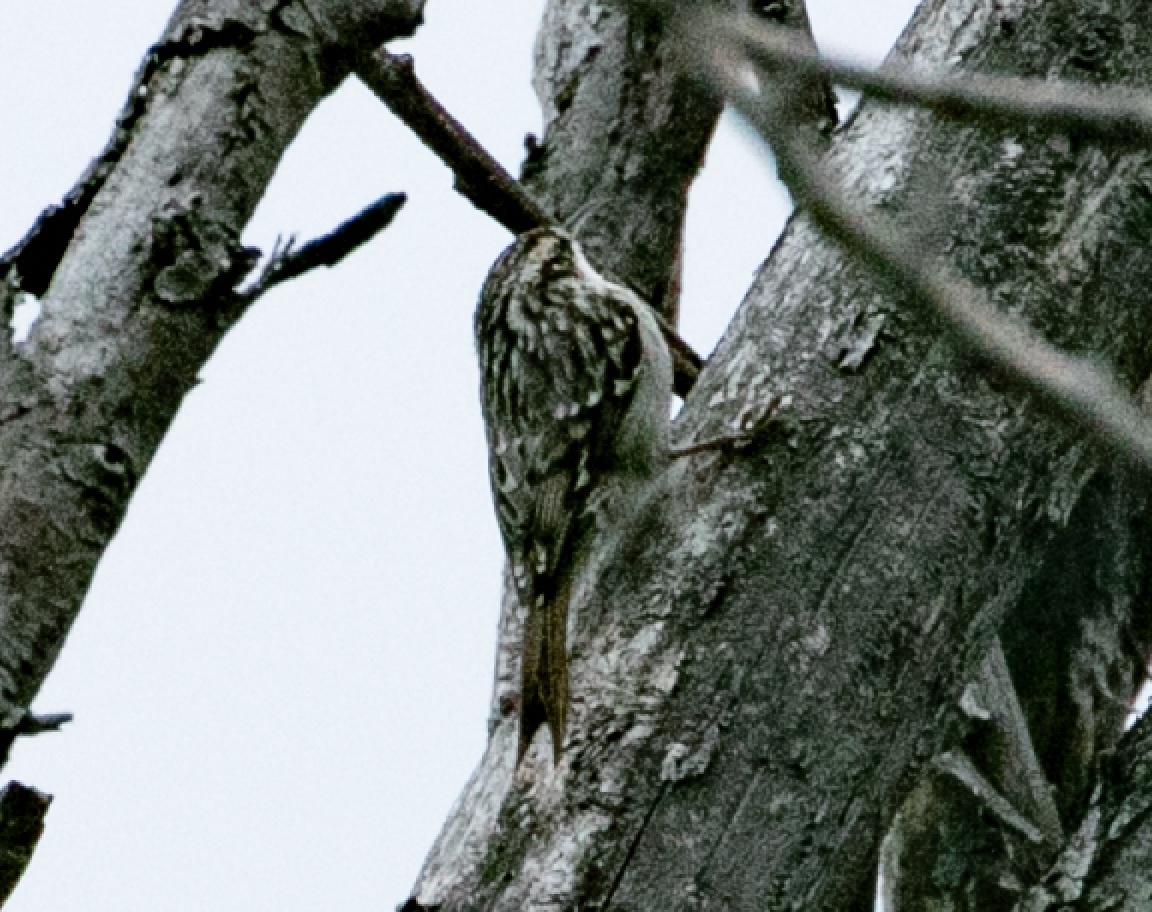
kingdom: Animalia
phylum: Chordata
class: Aves
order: Passeriformes
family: Certhiidae
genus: Certhia
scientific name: Certhia brachydactyla
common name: Short-toed treecreeper
